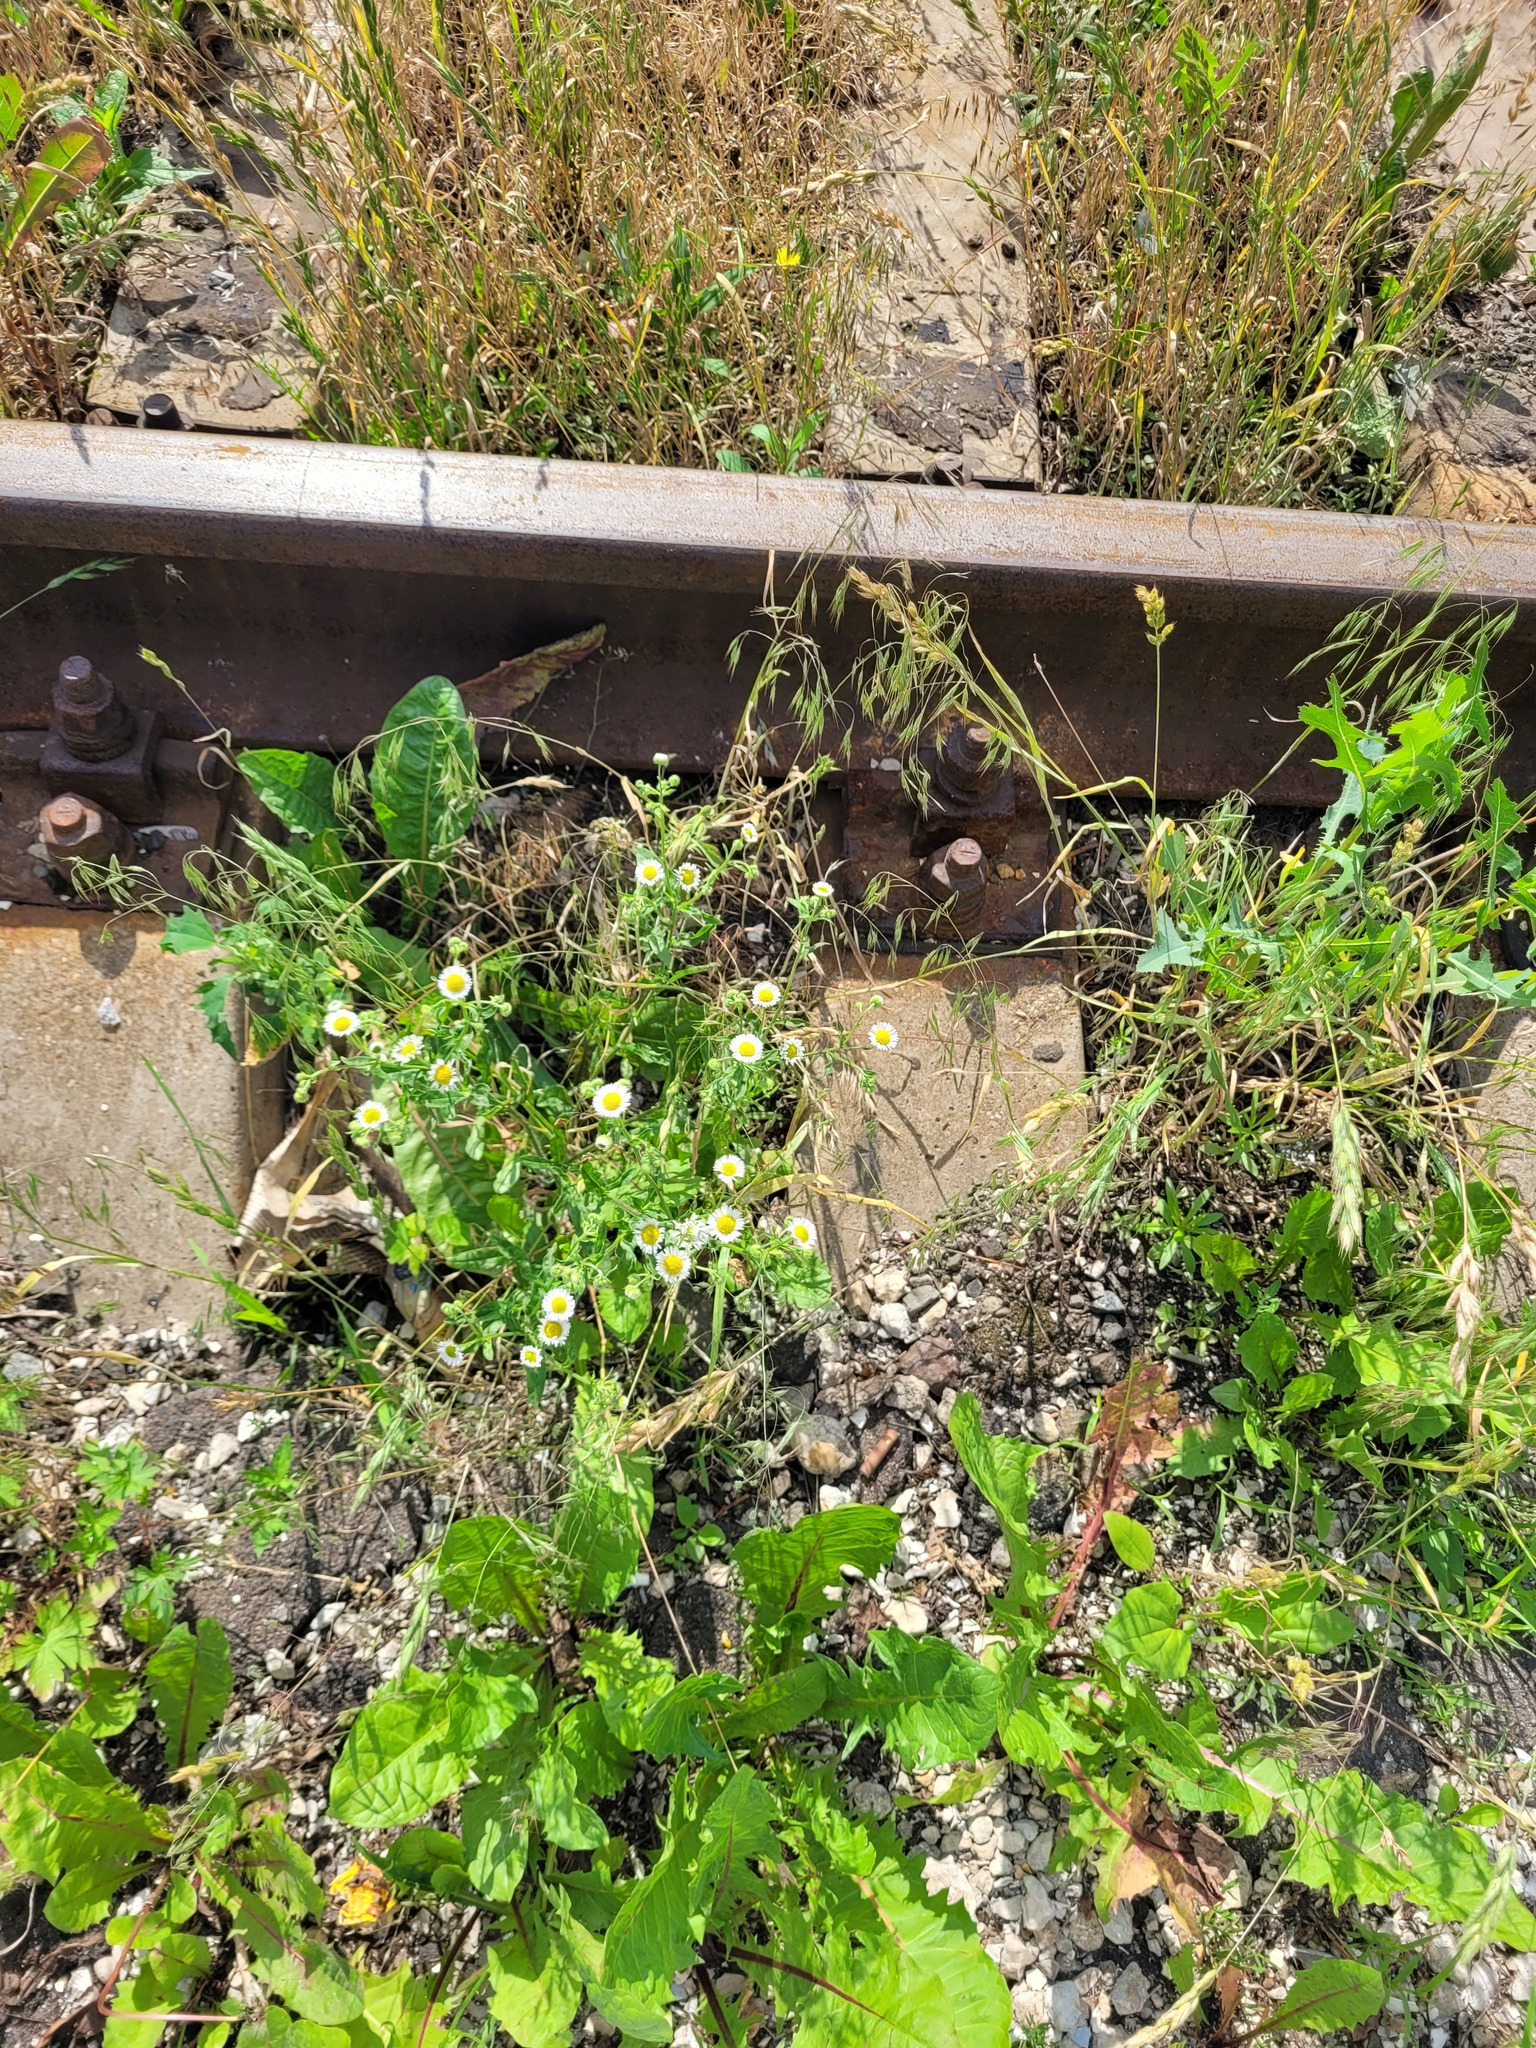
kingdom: Plantae
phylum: Tracheophyta
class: Magnoliopsida
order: Asterales
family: Asteraceae
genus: Erigeron
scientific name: Erigeron annuus
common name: Tall fleabane
